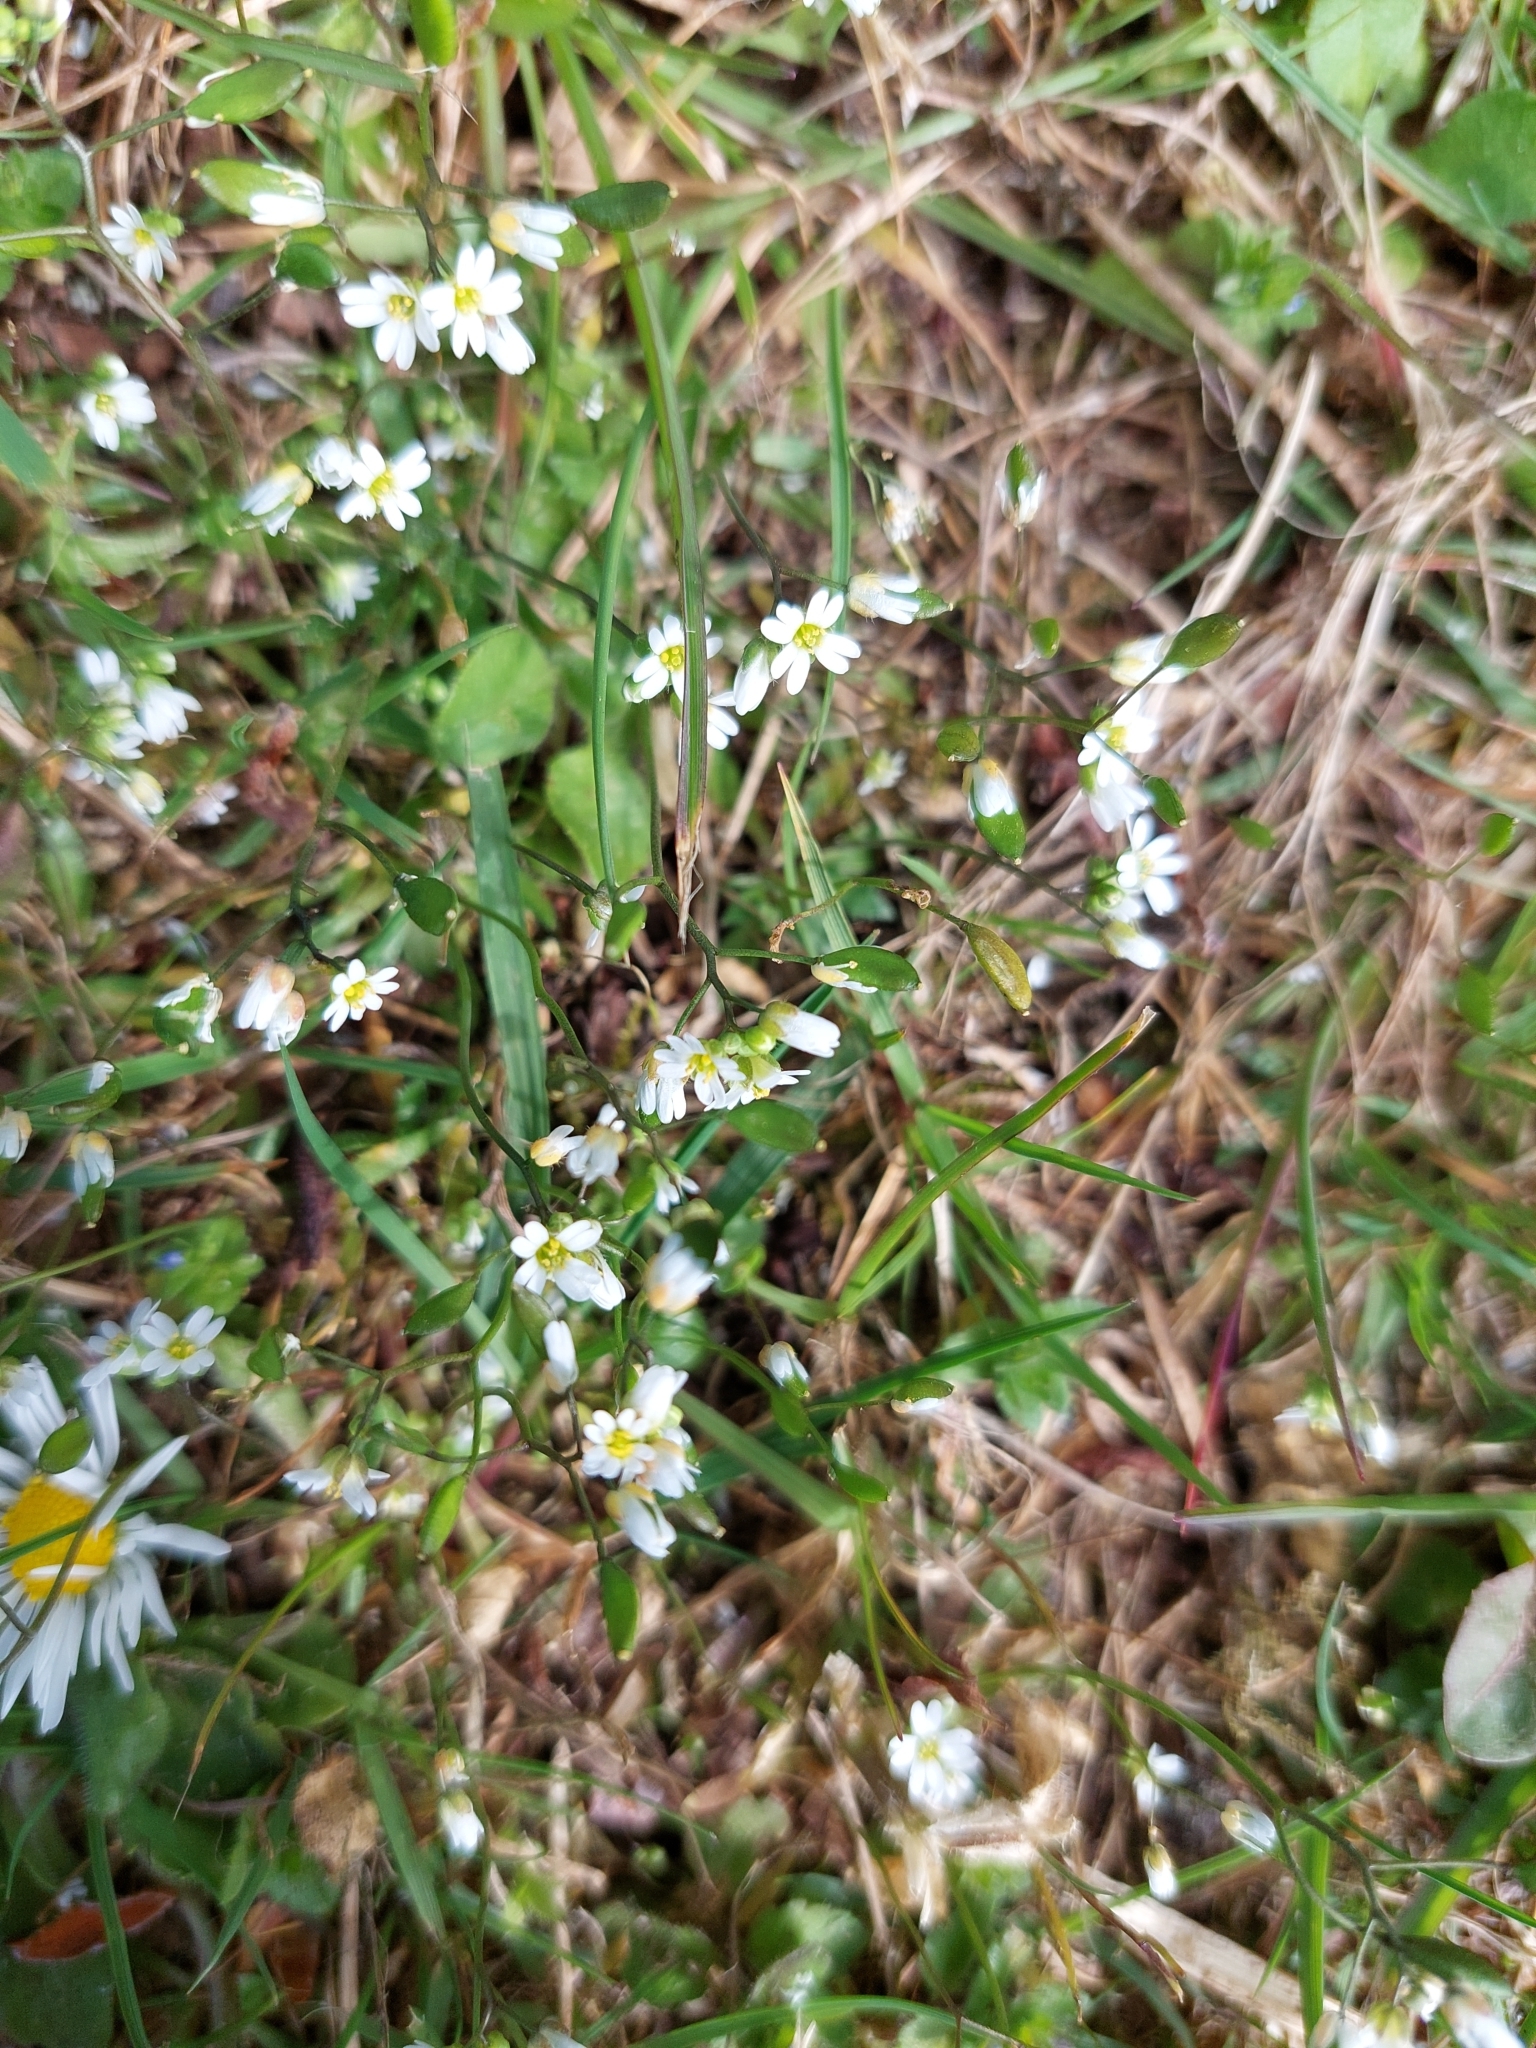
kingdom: Plantae
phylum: Tracheophyta
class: Magnoliopsida
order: Brassicales
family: Brassicaceae
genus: Draba
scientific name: Draba verna
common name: Spring draba
